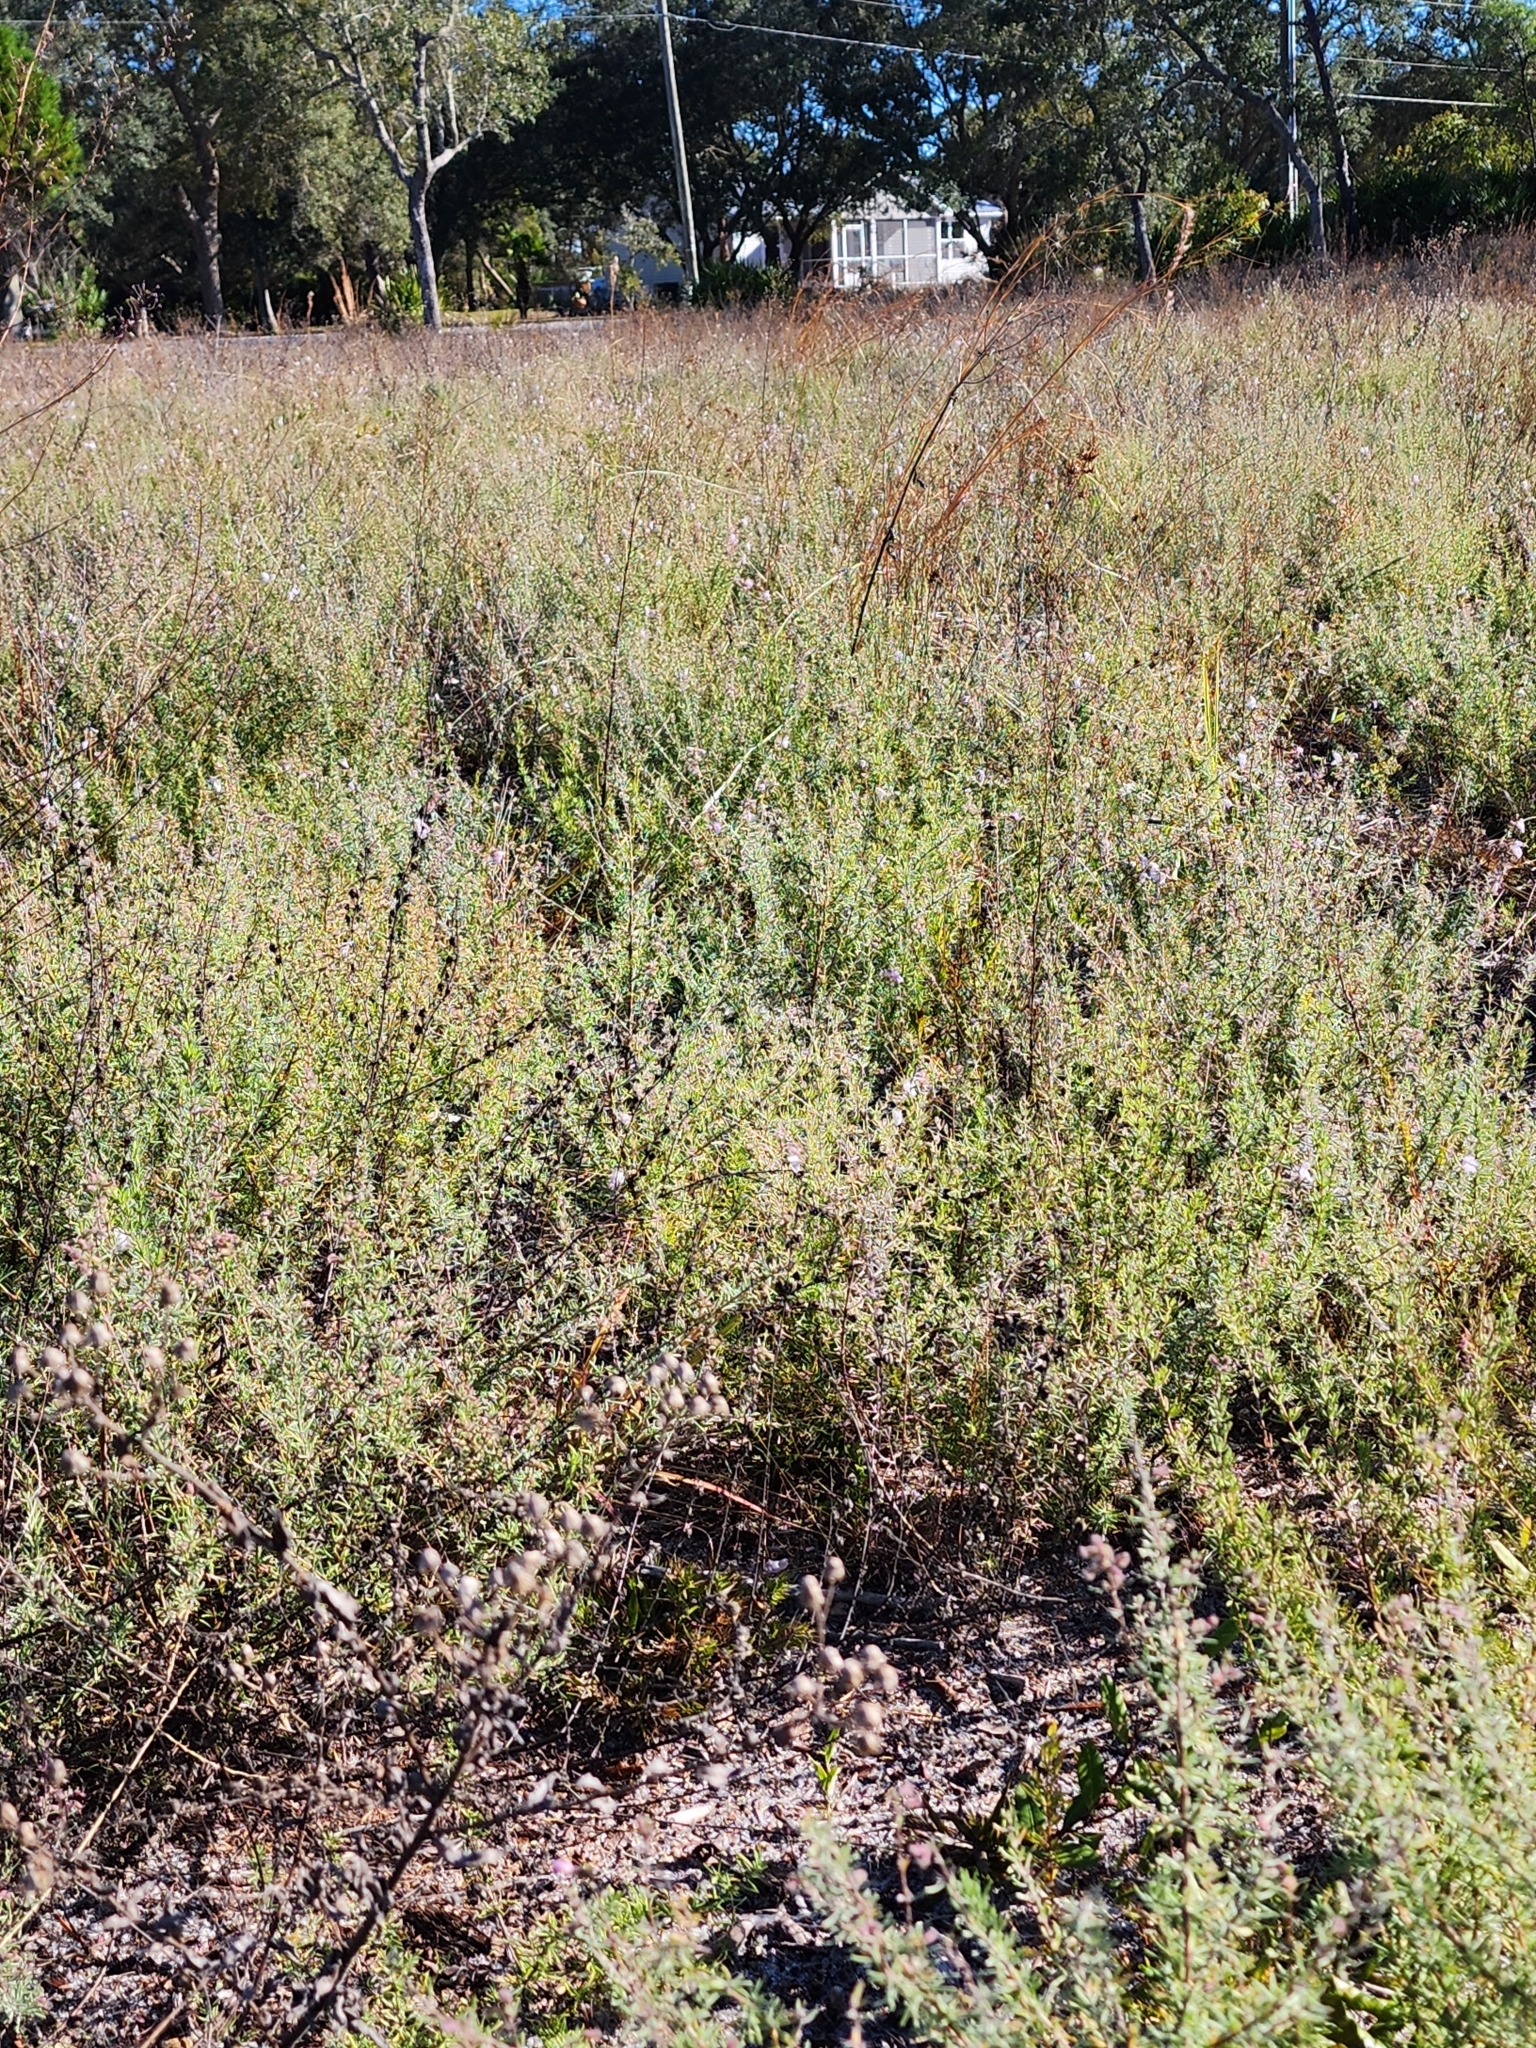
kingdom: Plantae
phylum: Tracheophyta
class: Magnoliopsida
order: Lamiales
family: Lamiaceae
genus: Conradina
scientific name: Conradina canescens
